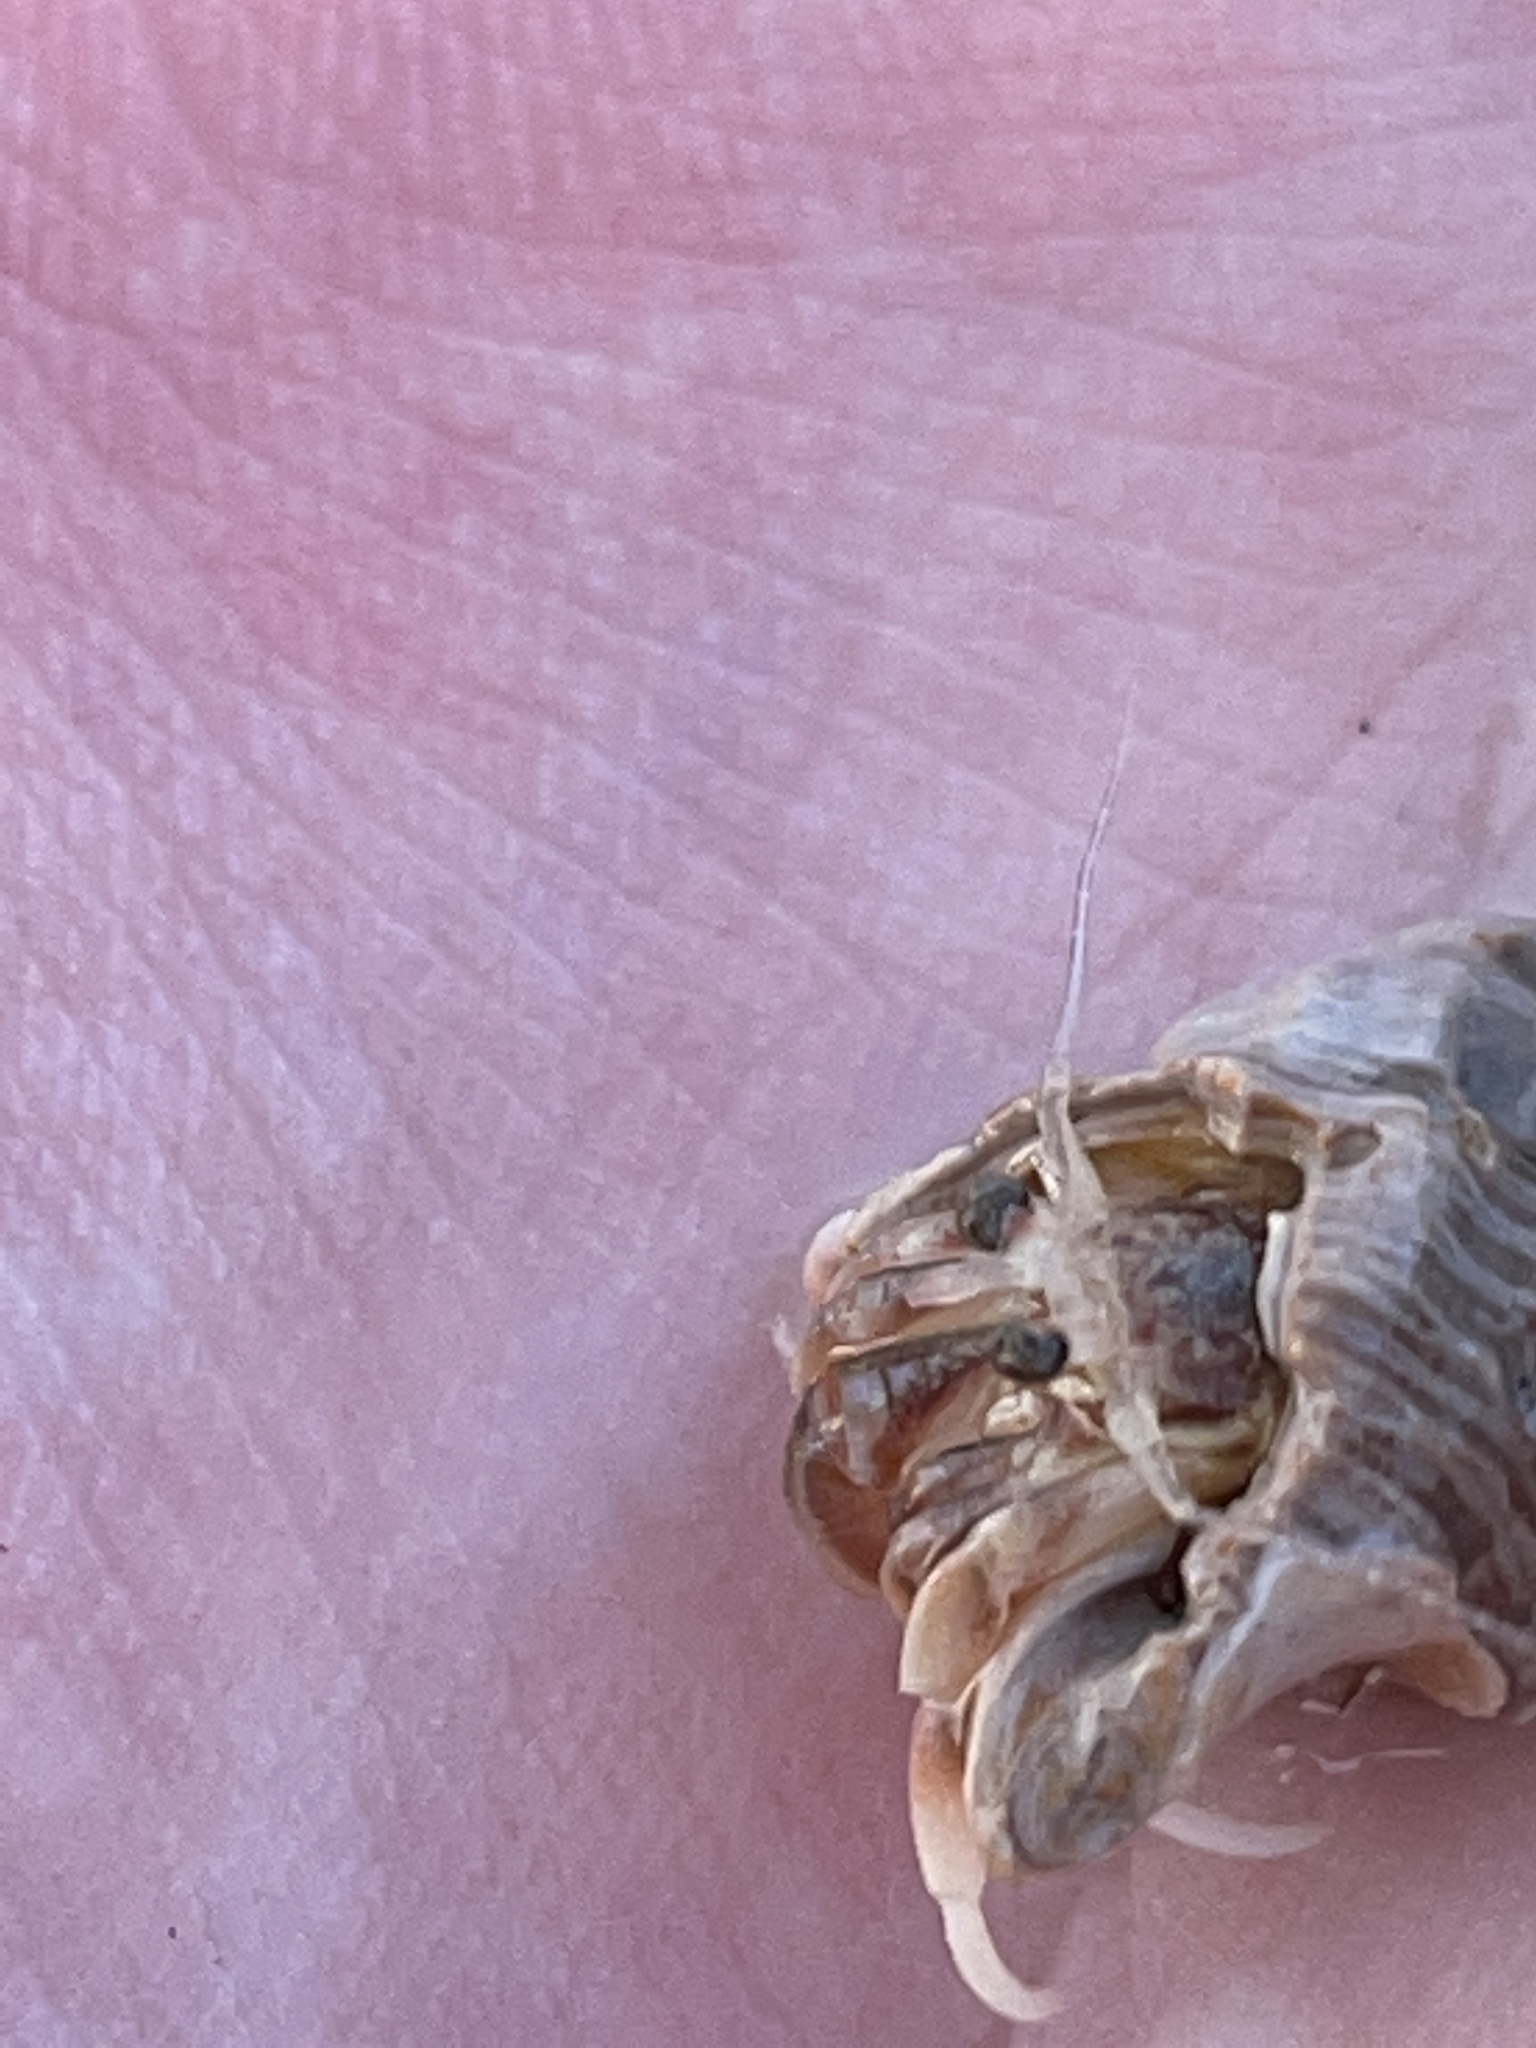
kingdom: Animalia
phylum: Arthropoda
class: Malacostraca
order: Decapoda
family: Paguridae
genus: Pagurus
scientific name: Pagurus longicarpus
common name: Long-armed hermit crab
